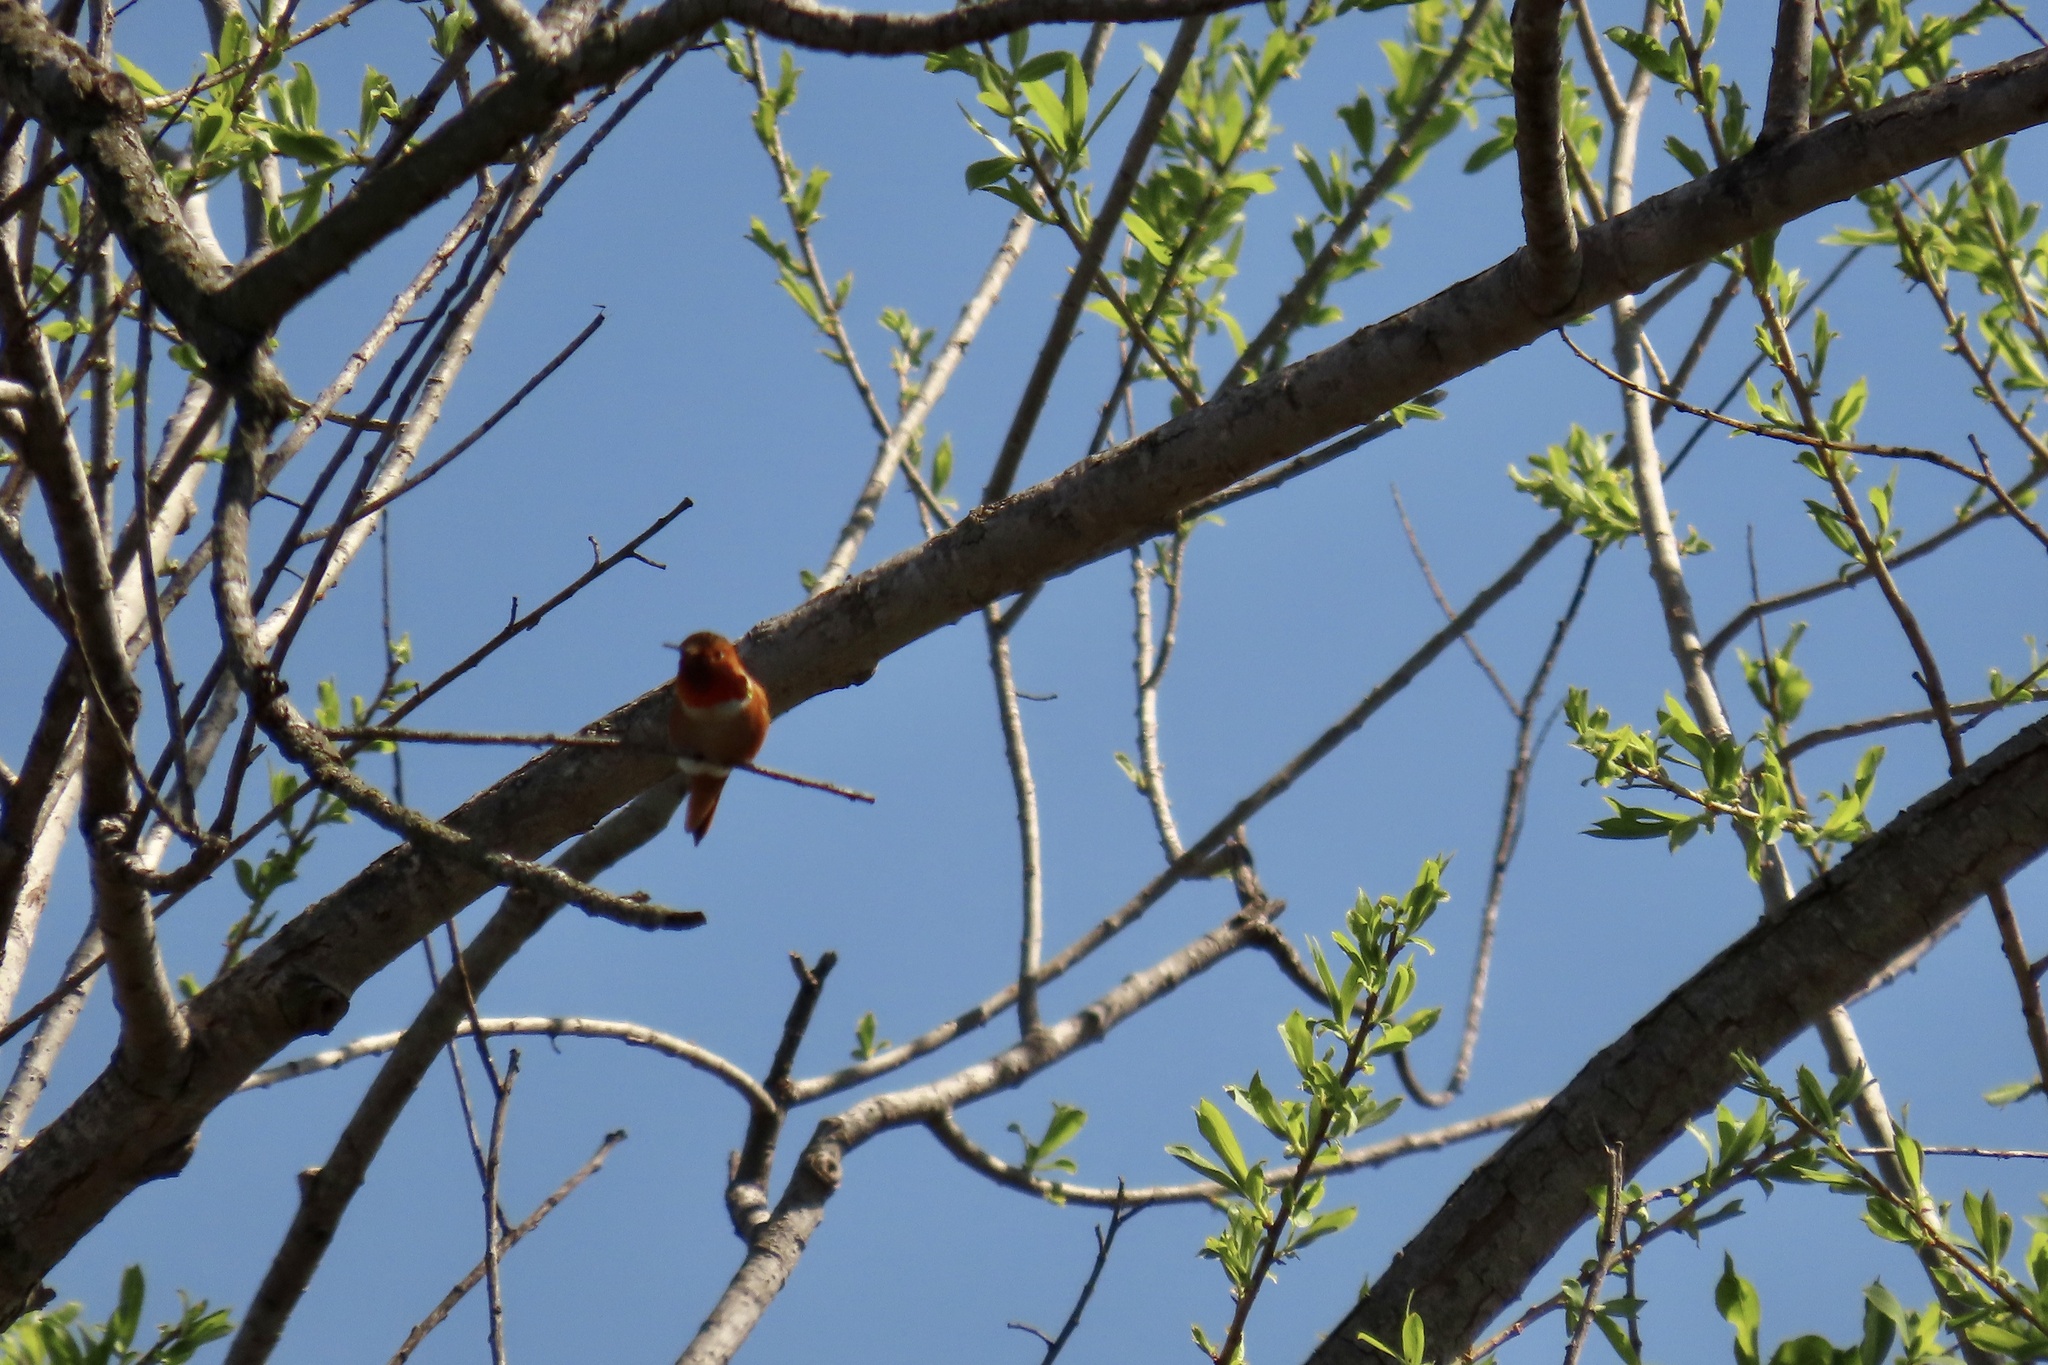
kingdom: Animalia
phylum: Chordata
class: Aves
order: Apodiformes
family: Trochilidae
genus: Selasphorus
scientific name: Selasphorus
